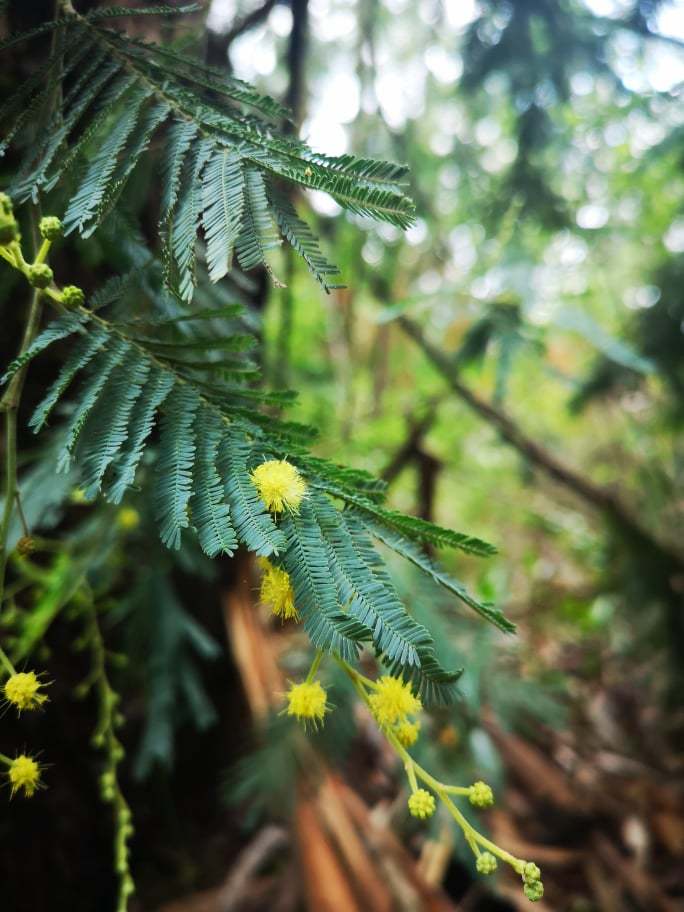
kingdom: Plantae
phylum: Tracheophyta
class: Magnoliopsida
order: Fabales
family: Fabaceae
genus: Acacia
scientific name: Acacia dealbata
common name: Silver wattle
